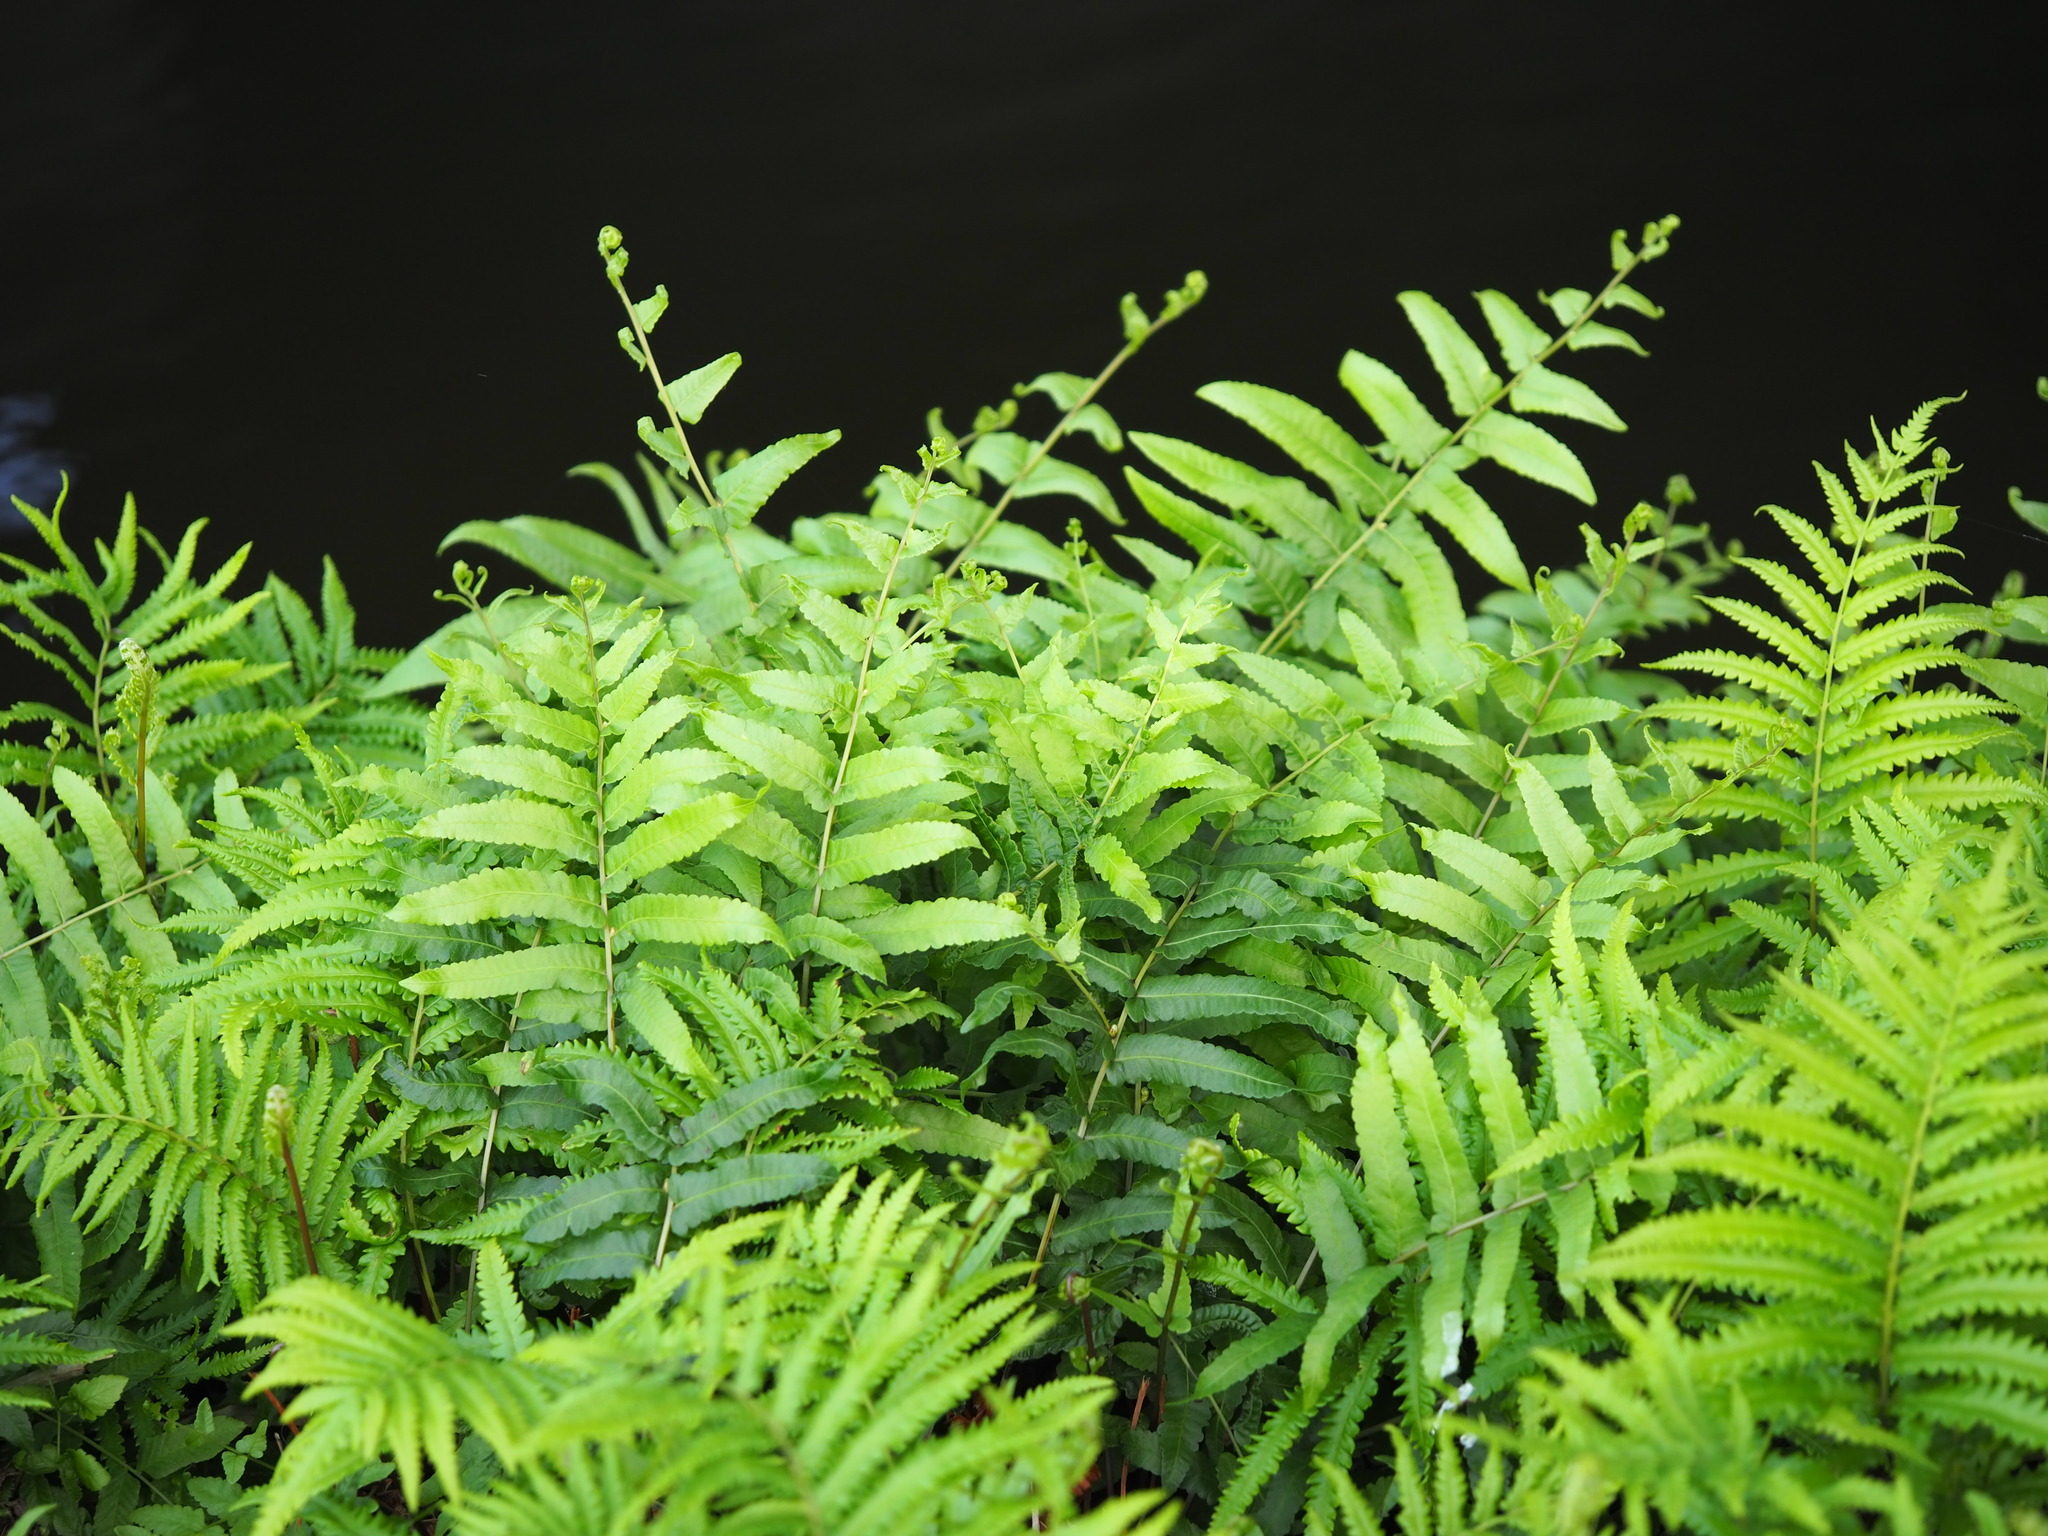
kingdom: Plantae
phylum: Tracheophyta
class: Polypodiopsida
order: Polypodiales
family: Thelypteridaceae
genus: Ampelopteris
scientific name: Ampelopteris prolifera
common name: Riverine scrambler
